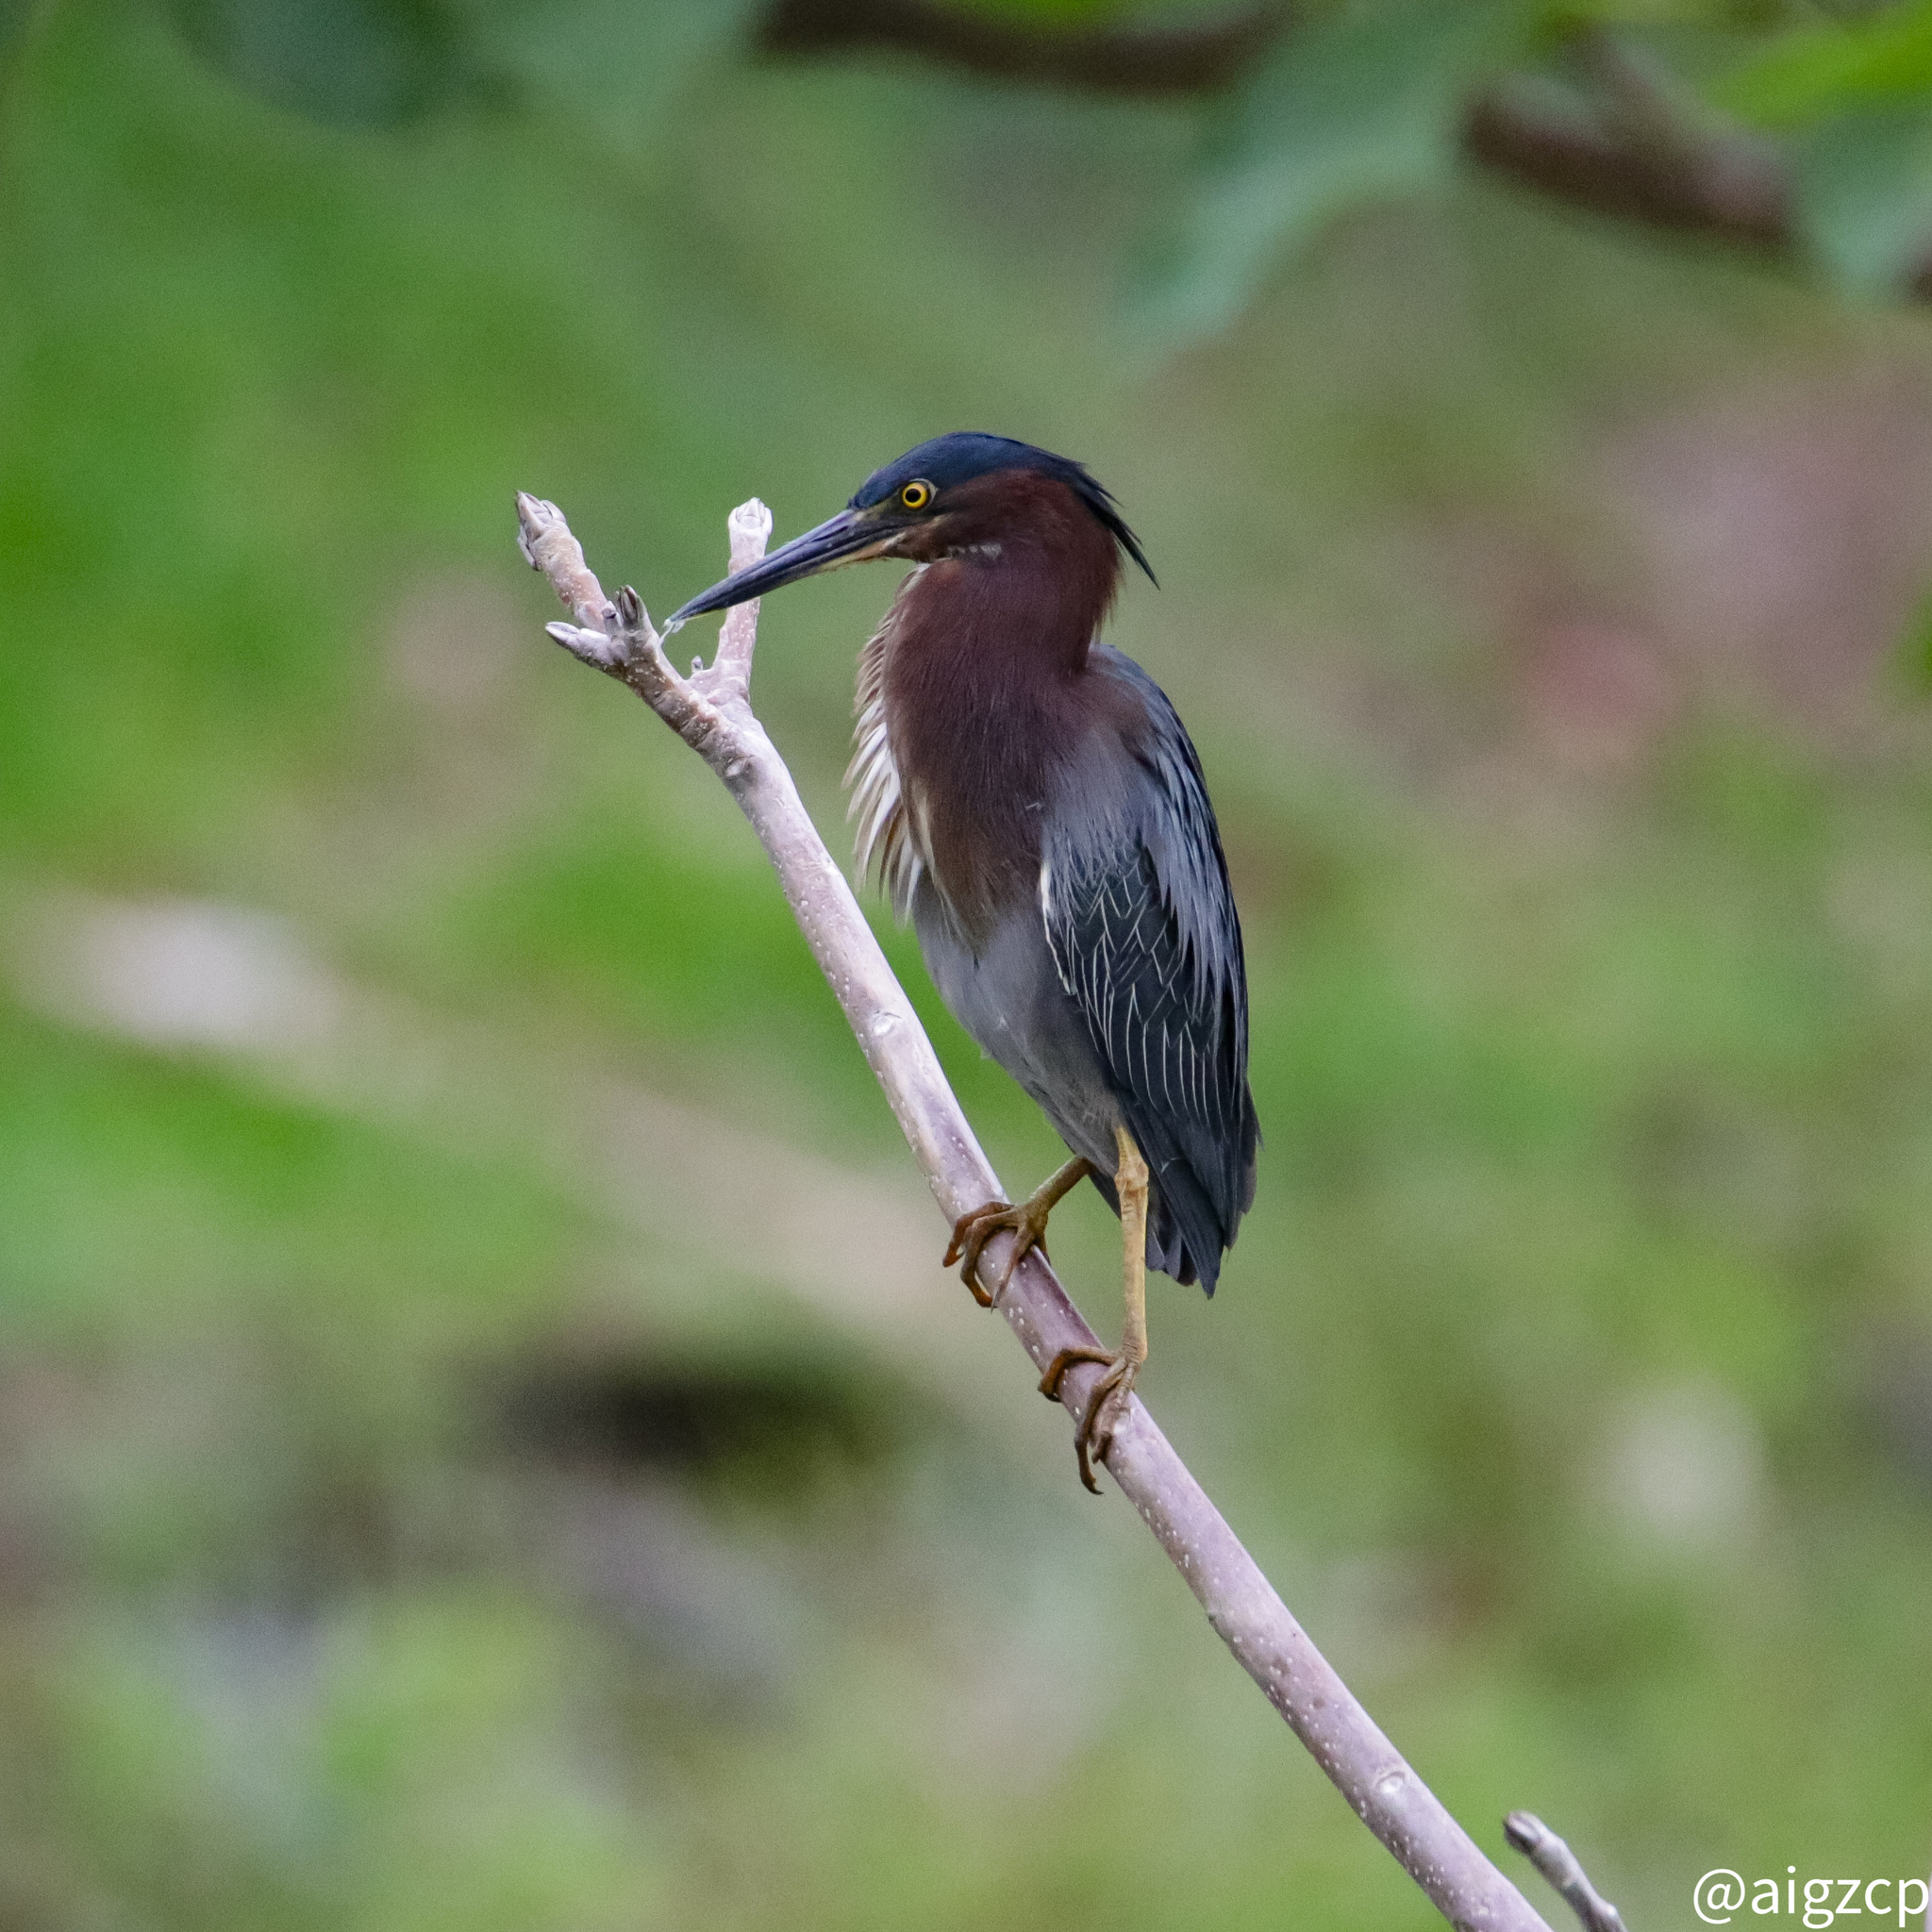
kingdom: Animalia
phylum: Chordata
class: Aves
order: Pelecaniformes
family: Ardeidae
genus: Butorides
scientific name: Butorides virescens
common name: Green heron
